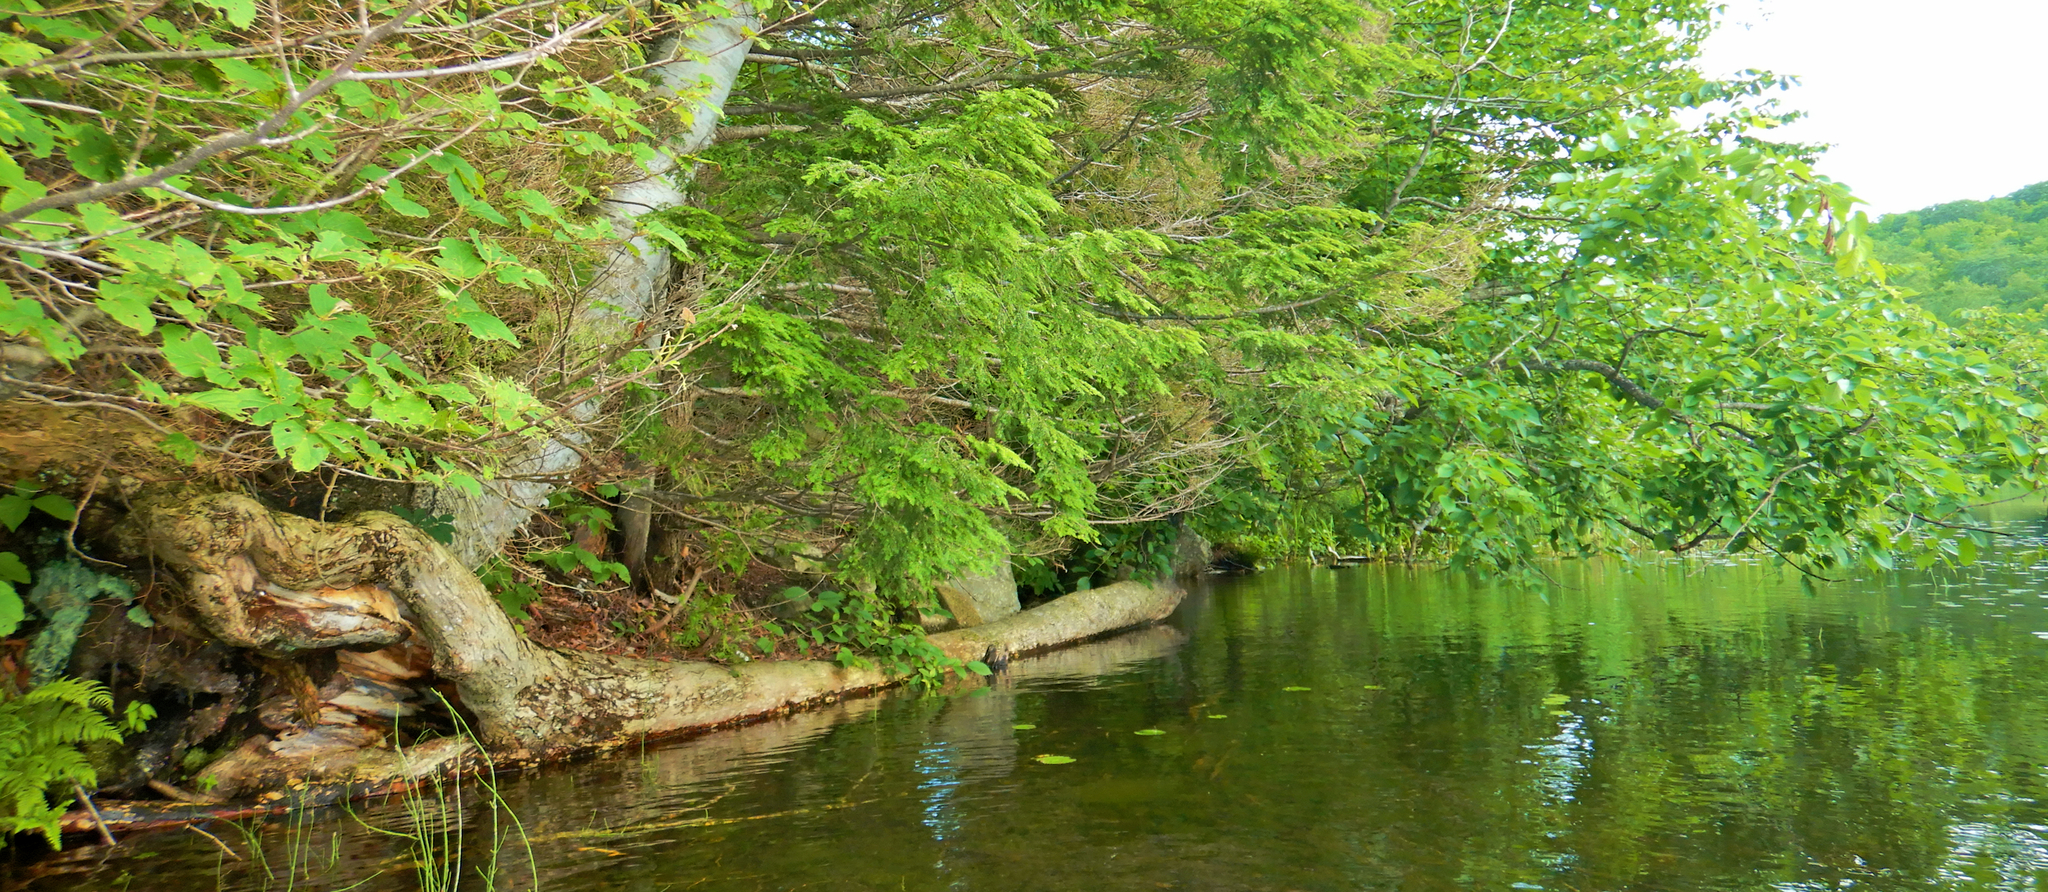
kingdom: Plantae
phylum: Tracheophyta
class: Magnoliopsida
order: Rosales
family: Ulmaceae
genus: Ulmus
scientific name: Ulmus americana
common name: American elm
